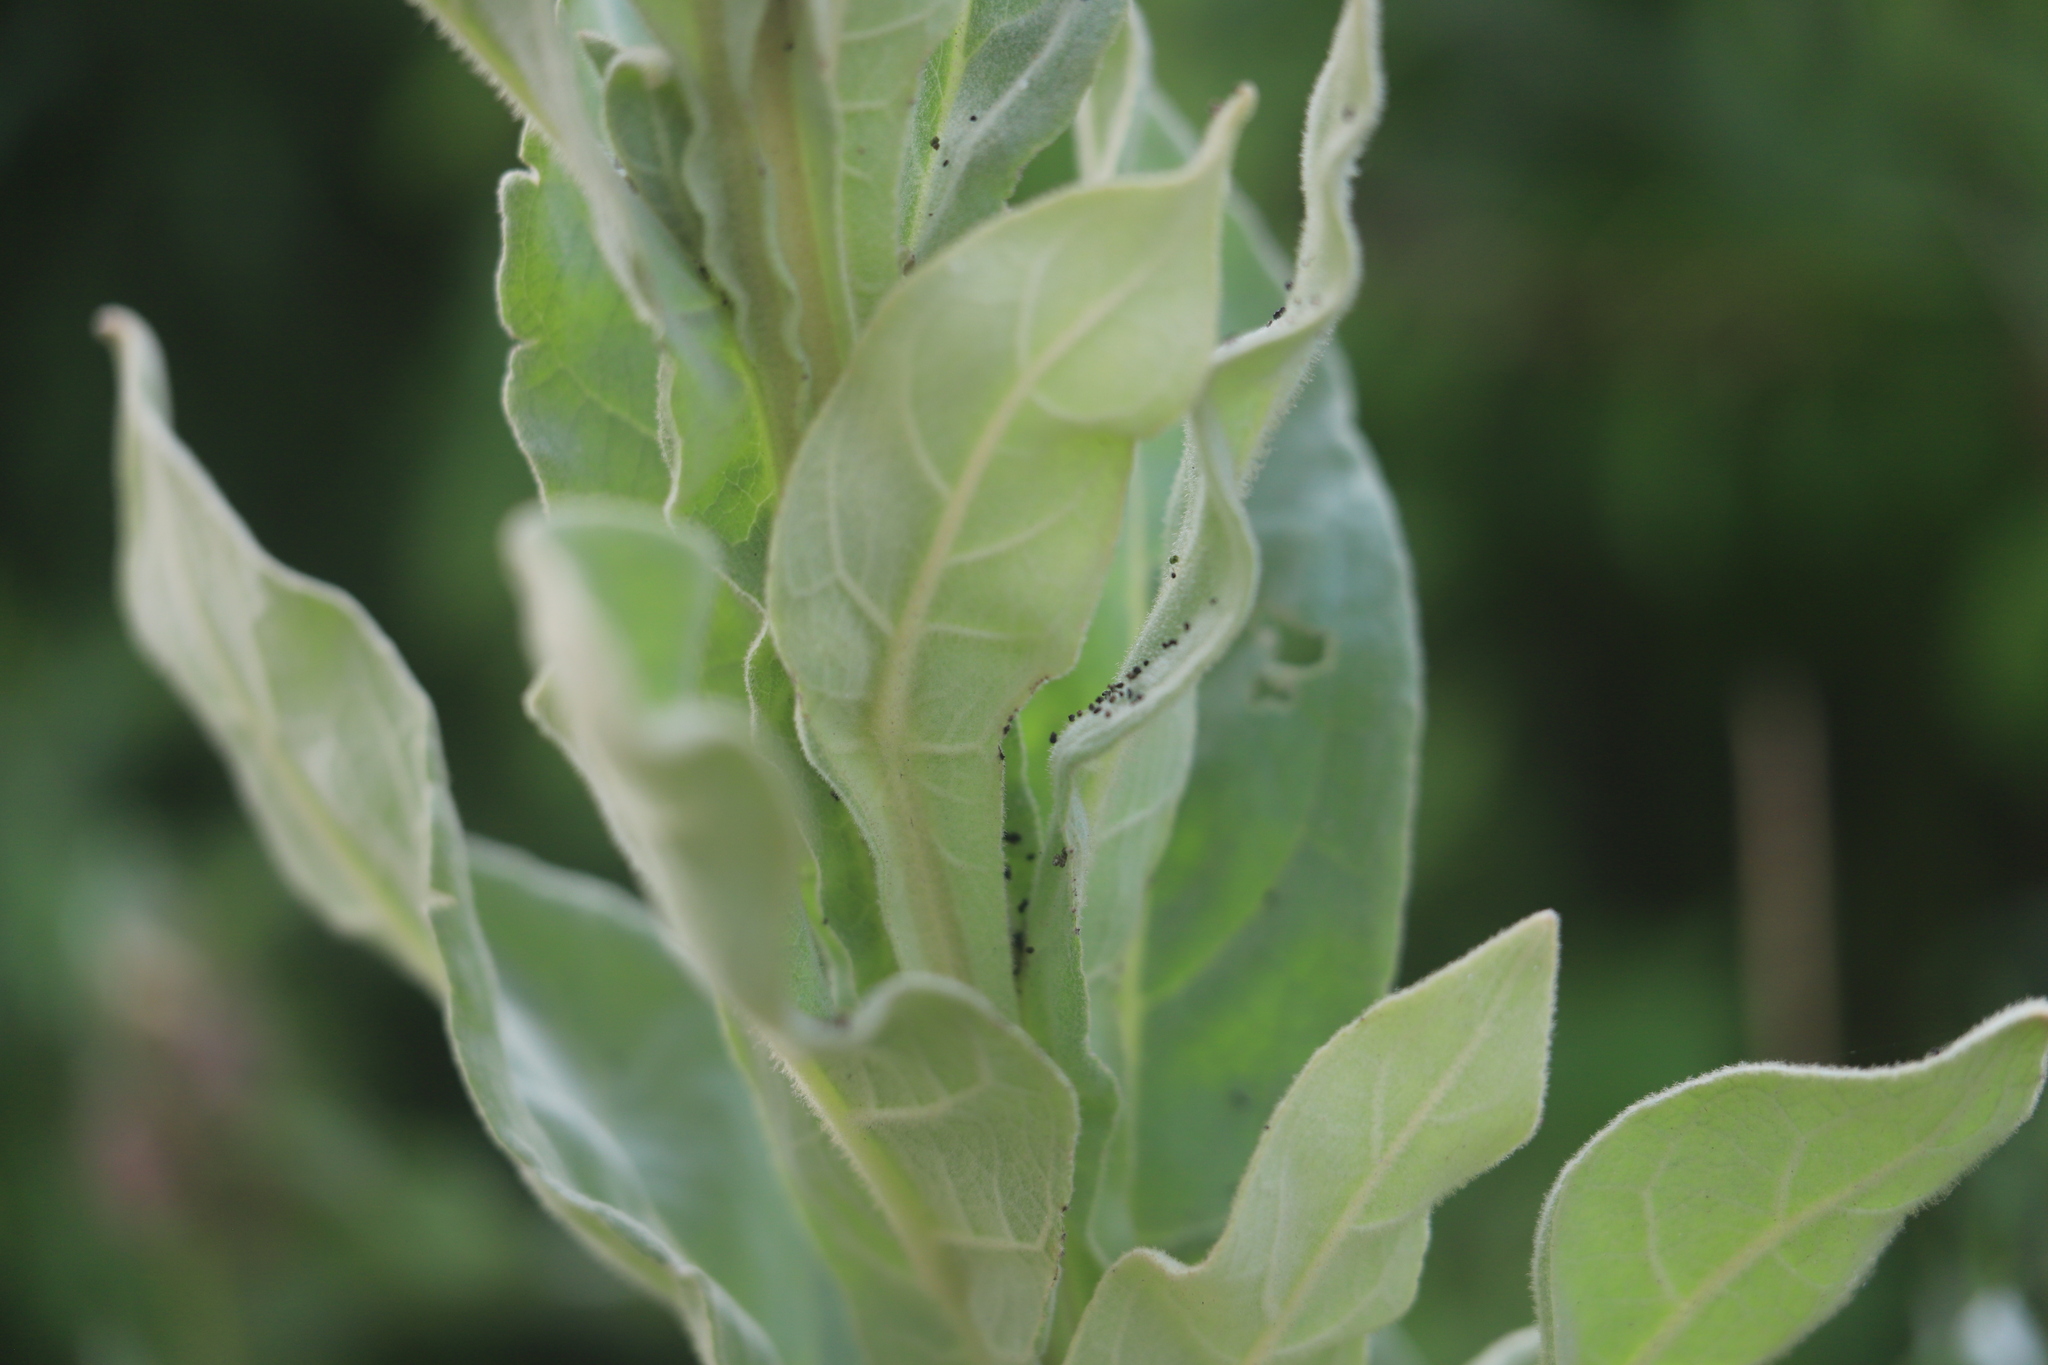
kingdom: Plantae
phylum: Tracheophyta
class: Magnoliopsida
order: Lamiales
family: Scrophulariaceae
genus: Verbascum
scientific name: Verbascum thapsus
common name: Common mullein
